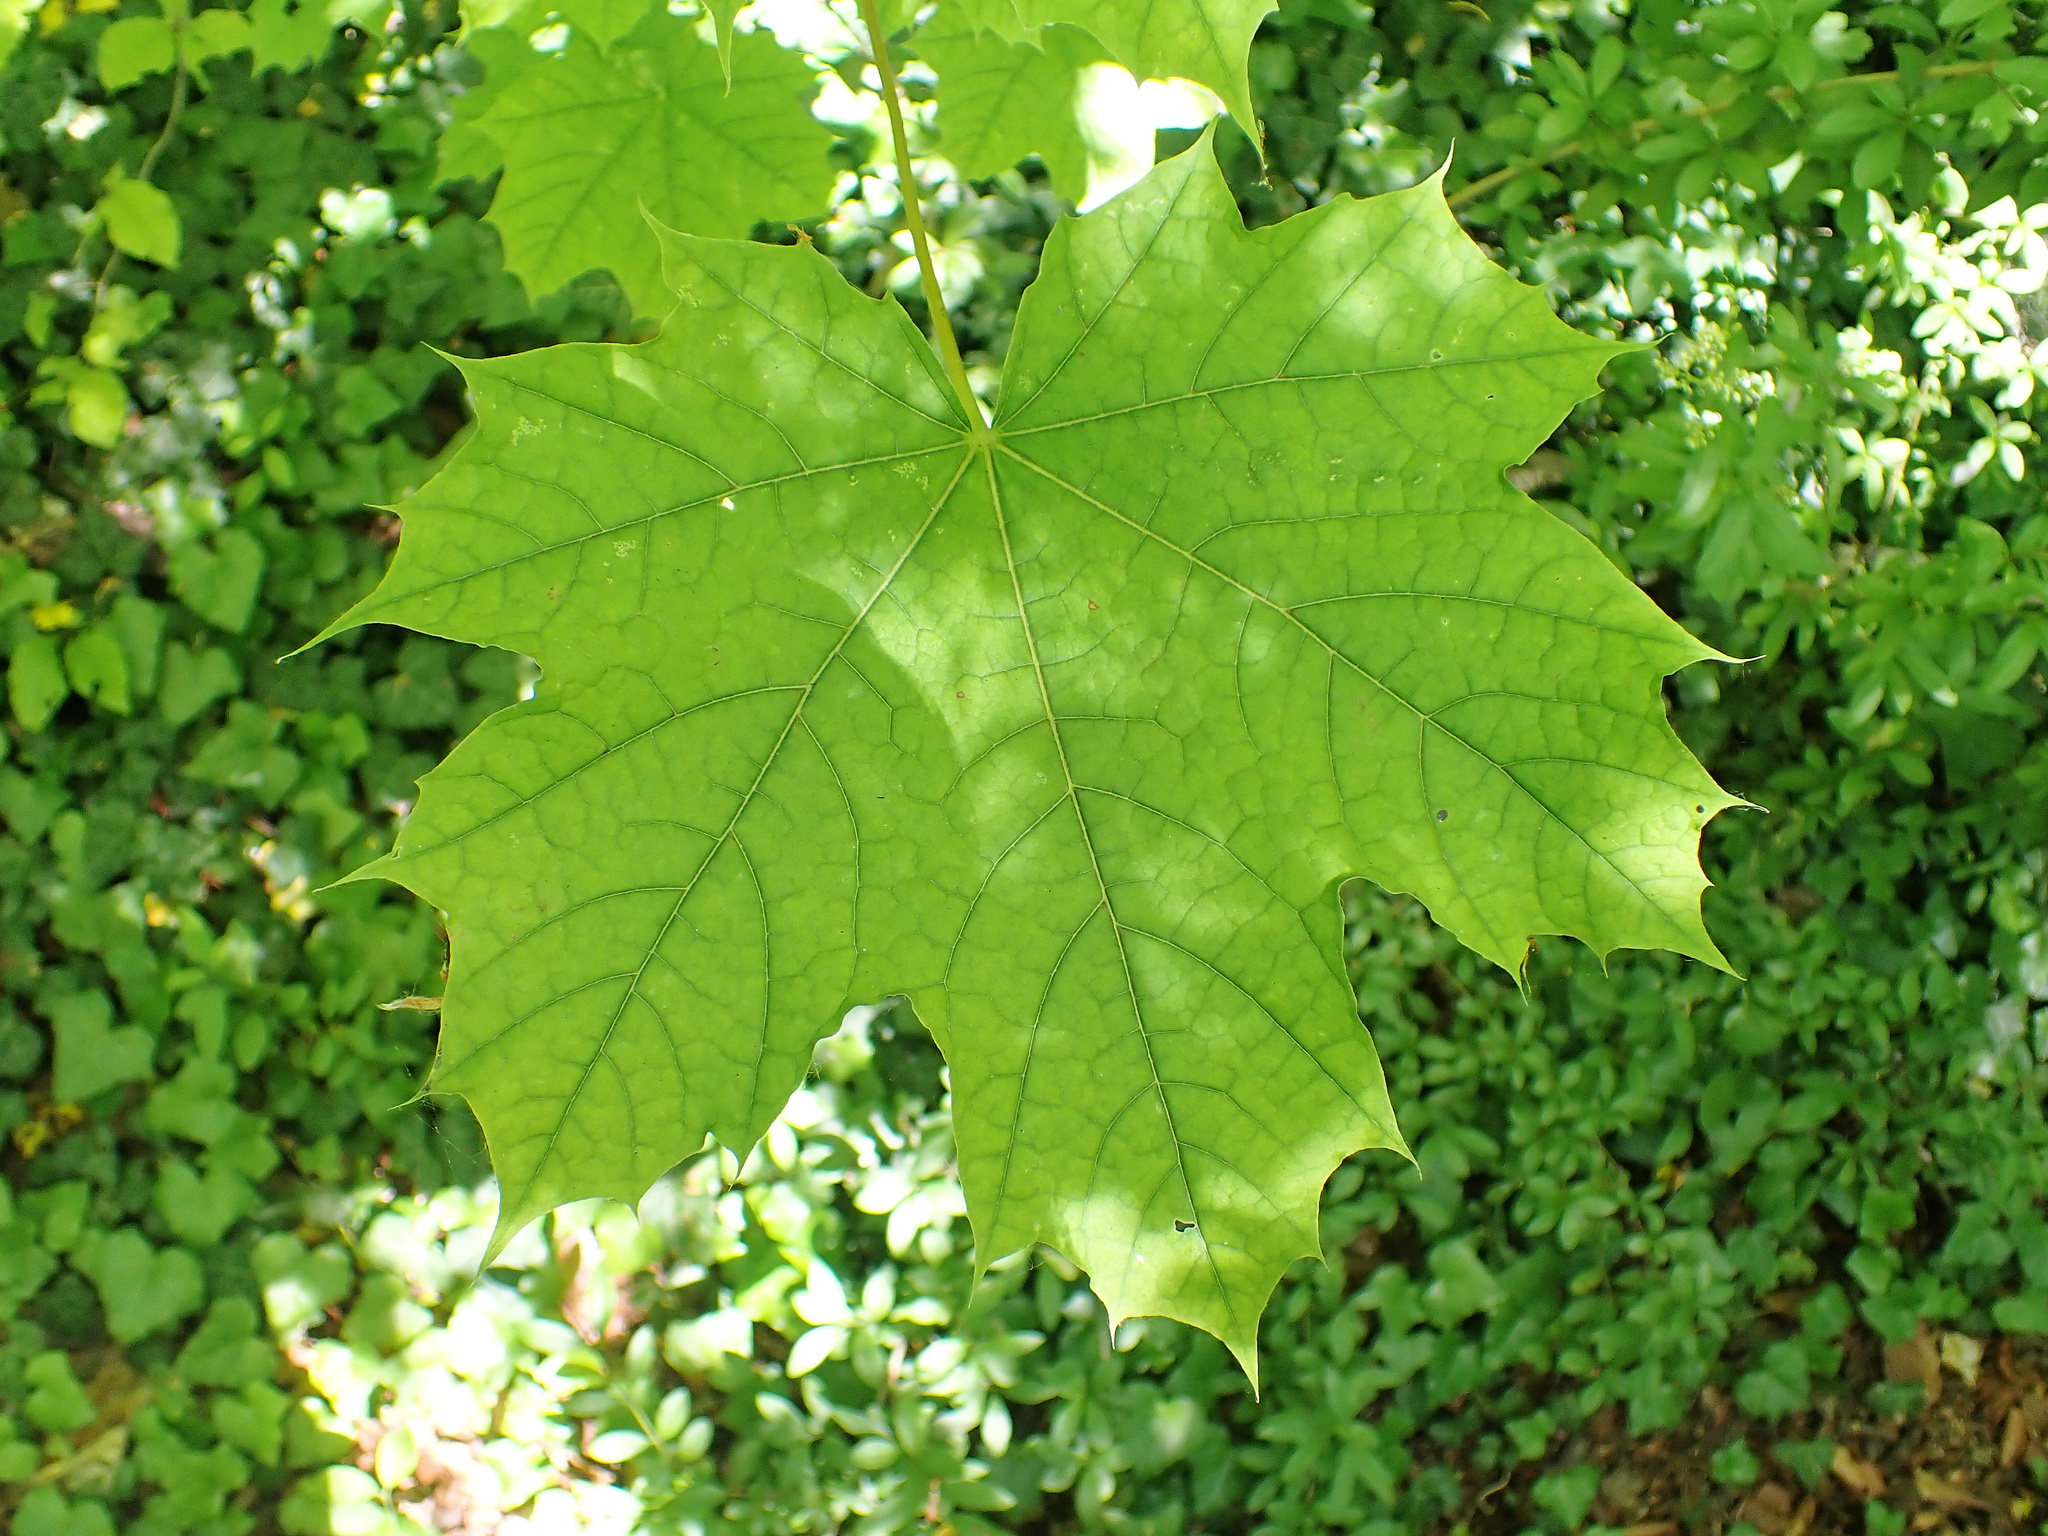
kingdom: Plantae
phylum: Tracheophyta
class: Magnoliopsida
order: Sapindales
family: Sapindaceae
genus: Acer
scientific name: Acer platanoides
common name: Norway maple
